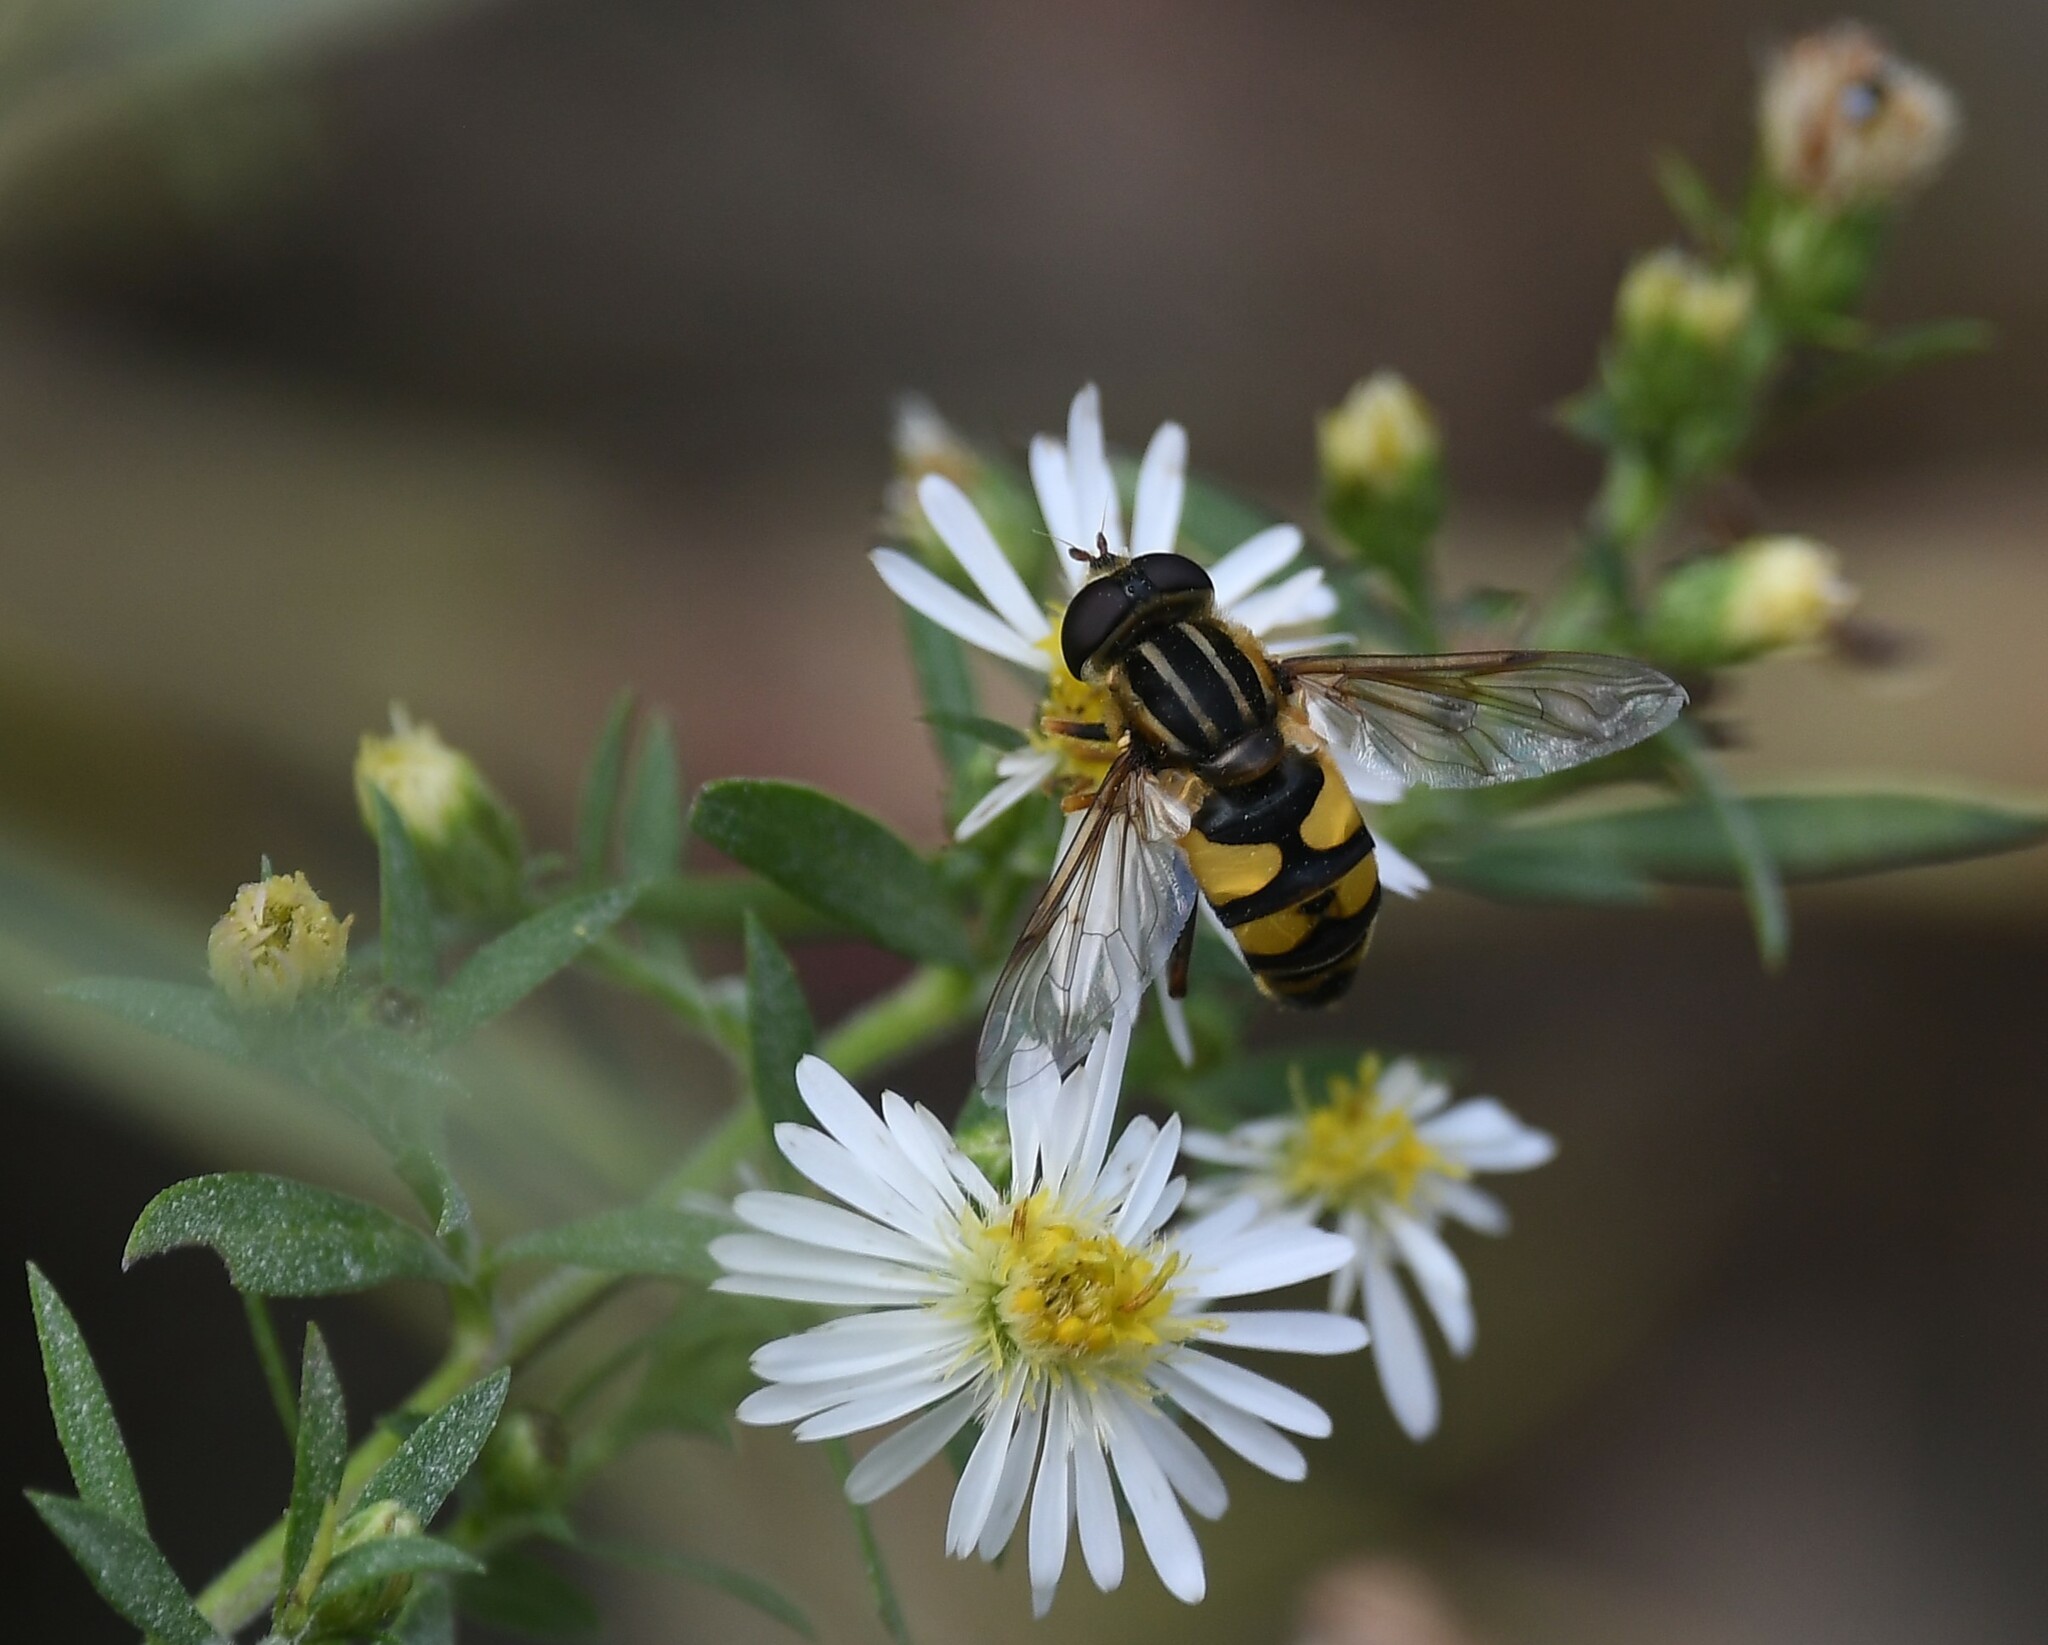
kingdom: Animalia
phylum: Arthropoda
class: Insecta
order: Diptera
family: Syrphidae
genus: Helophilus
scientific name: Helophilus fasciatus
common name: Narrow-headed marsh fly
